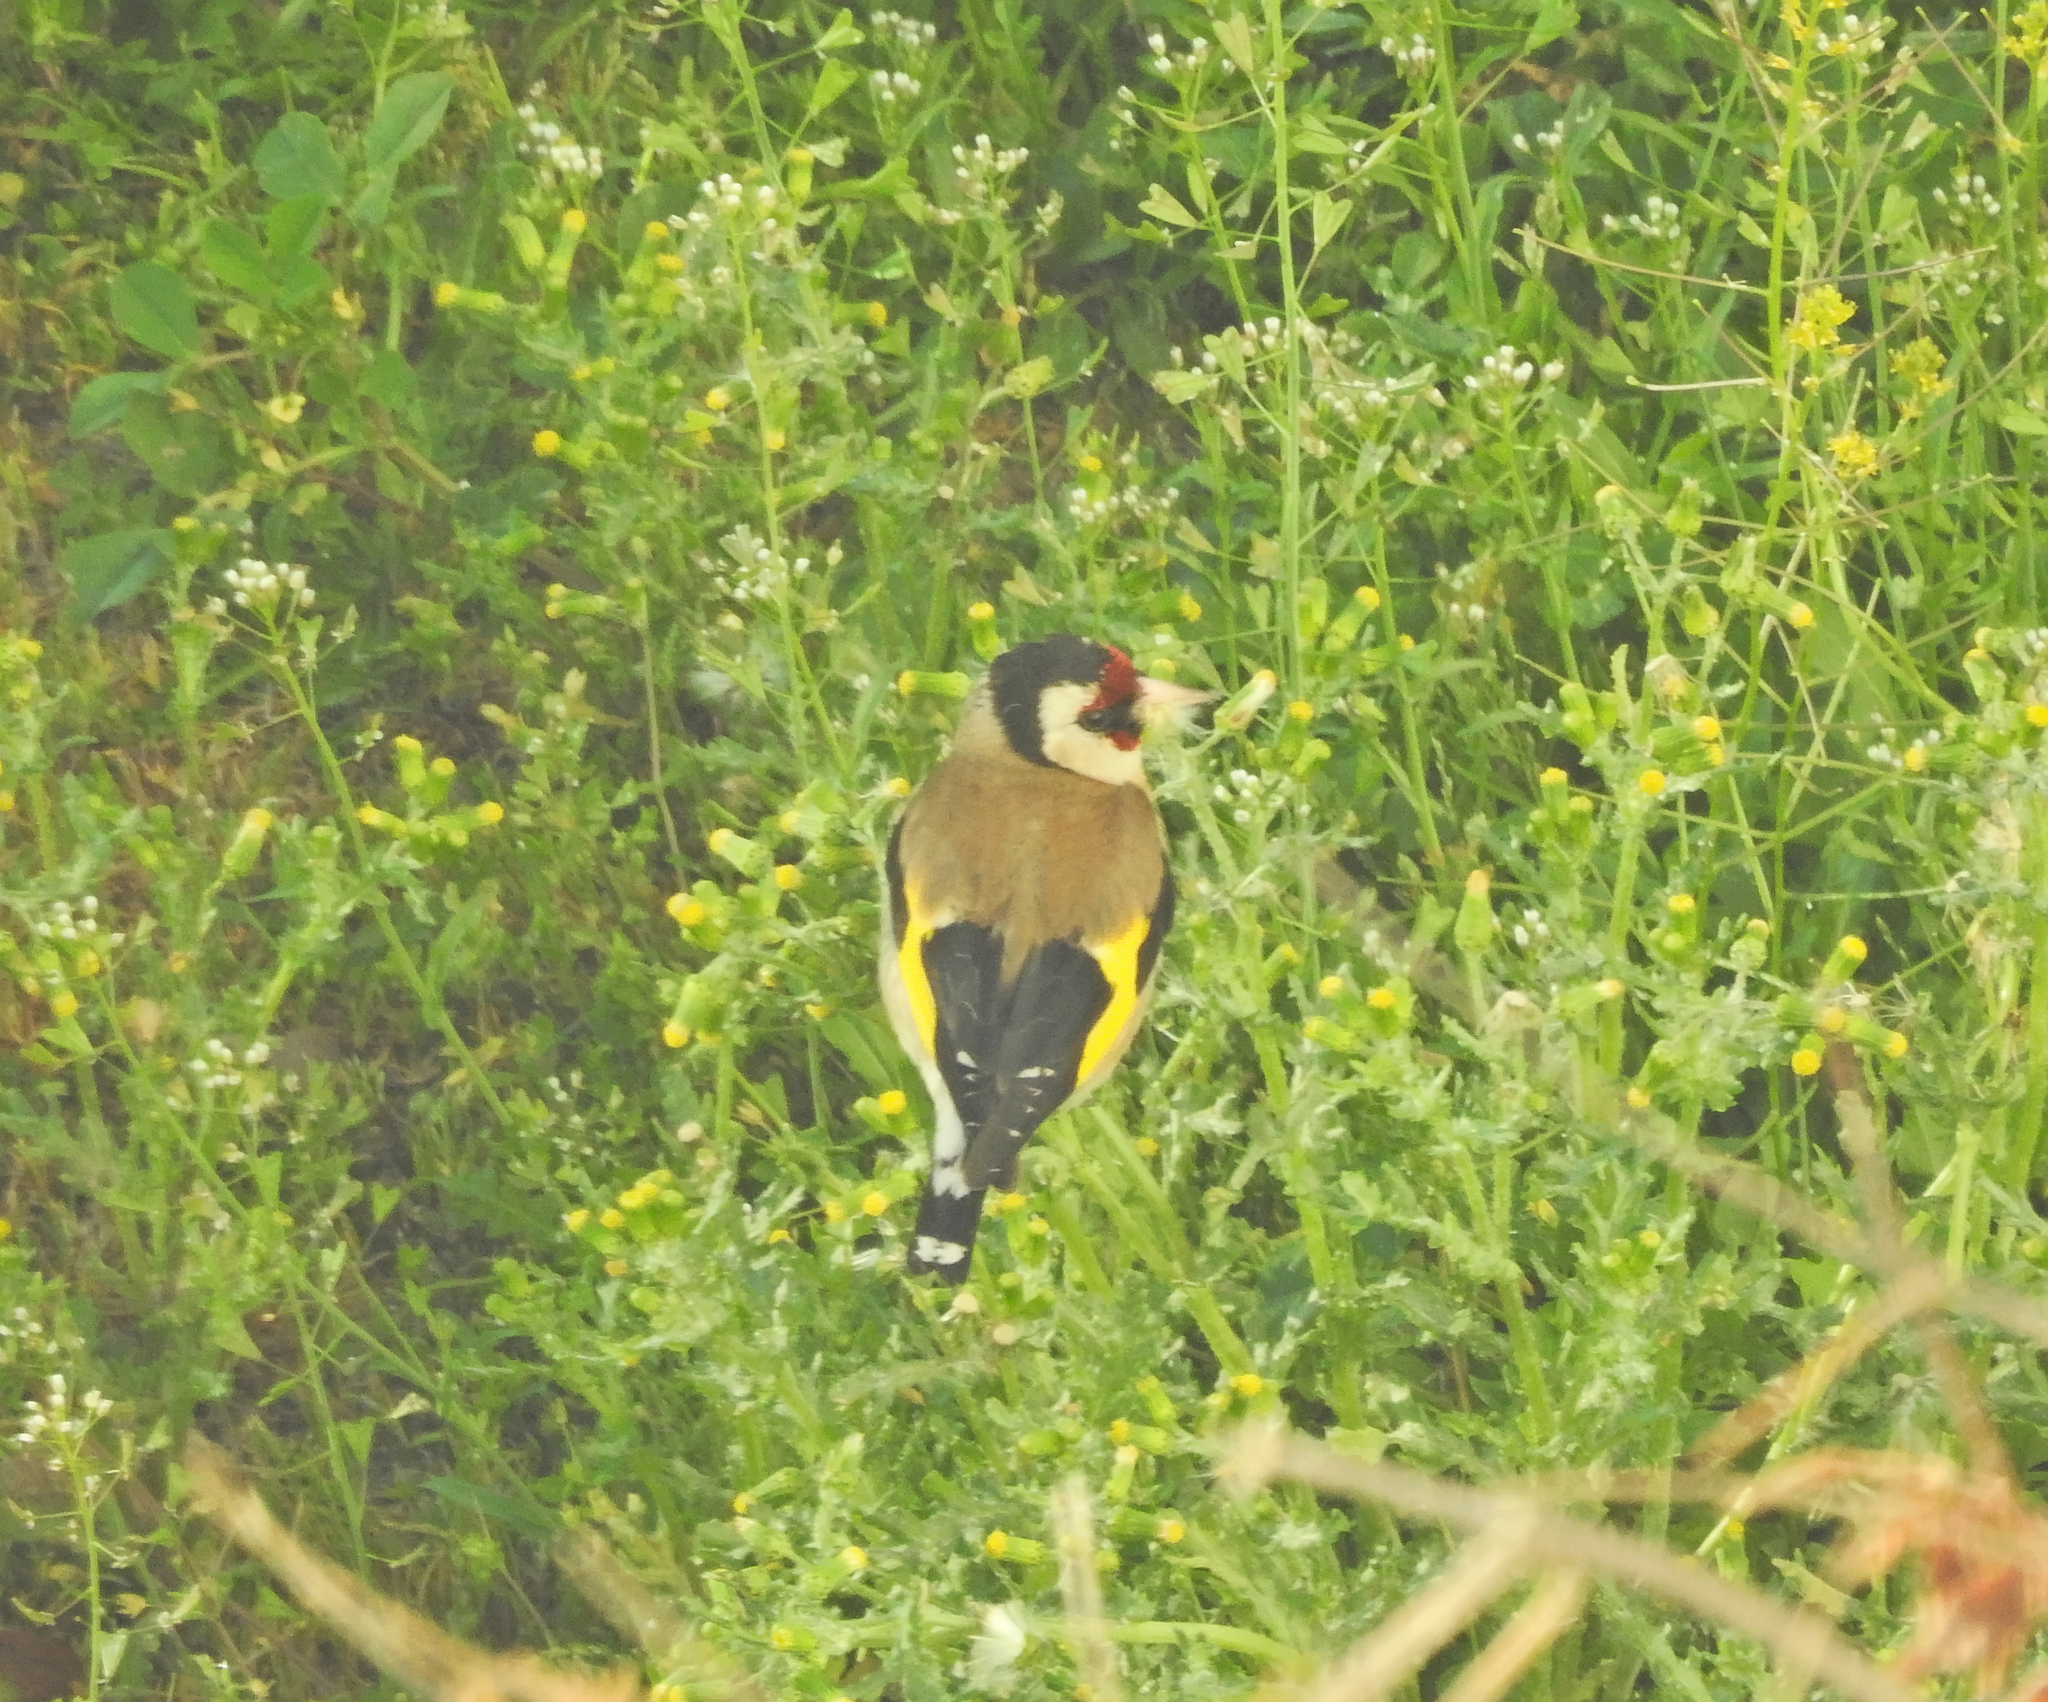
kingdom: Animalia
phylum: Chordata
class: Aves
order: Passeriformes
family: Fringillidae
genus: Carduelis
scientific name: Carduelis carduelis
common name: European goldfinch
